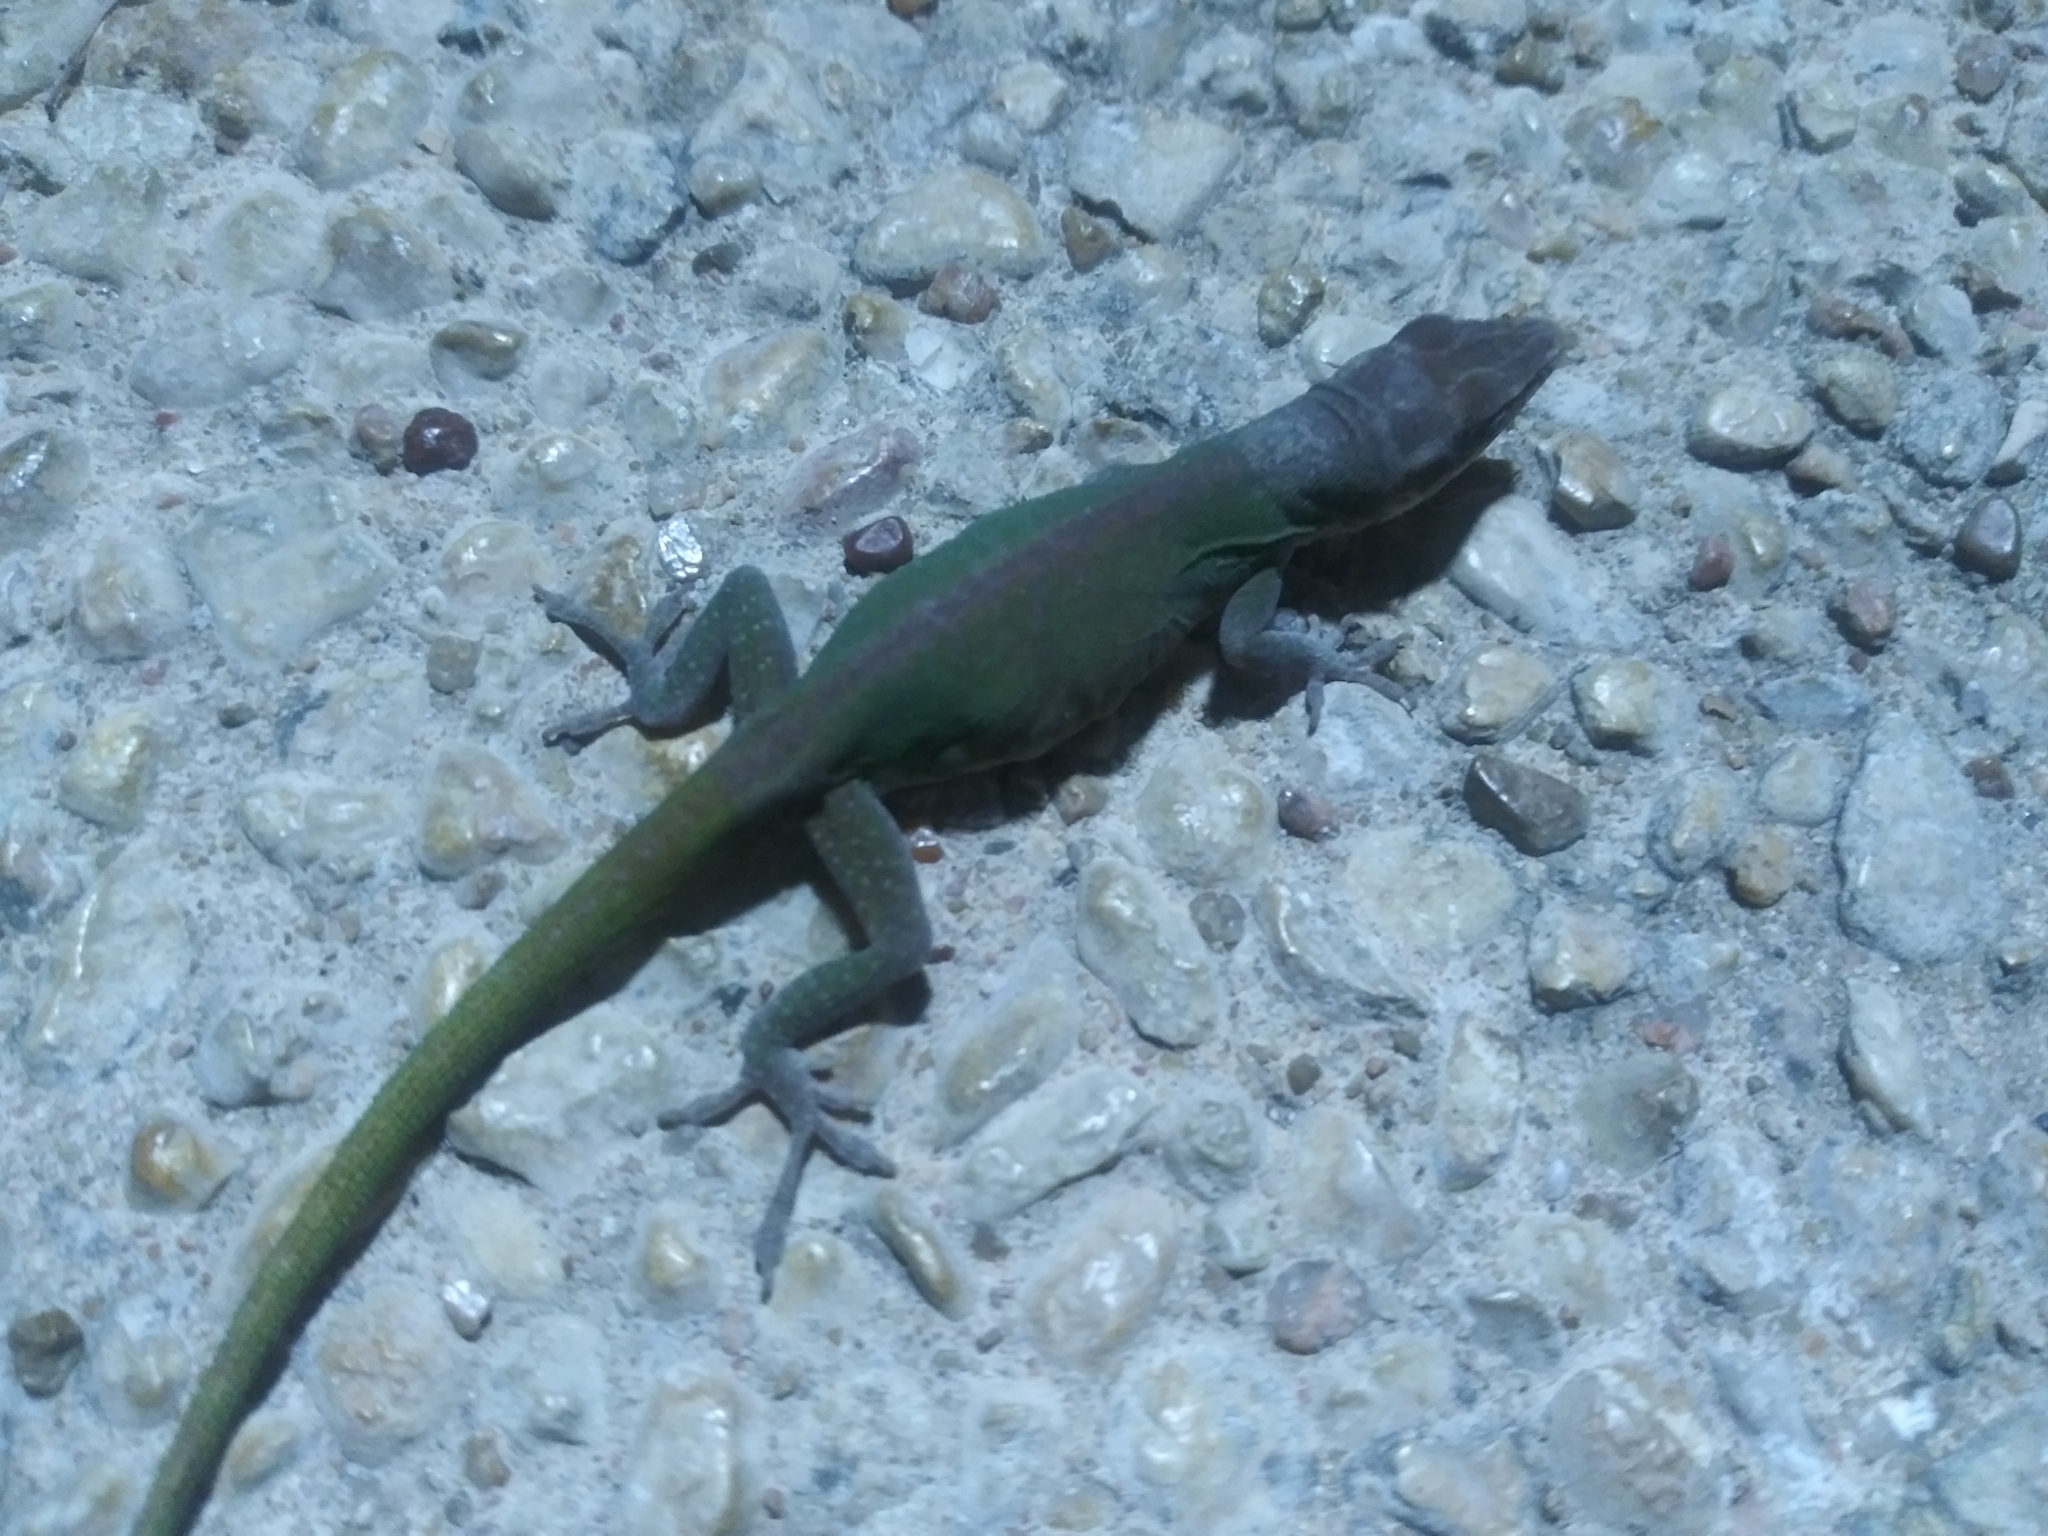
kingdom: Animalia
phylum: Chordata
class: Squamata
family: Dactyloidae
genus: Anolis
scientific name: Anolis carolinensis
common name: Green anole
